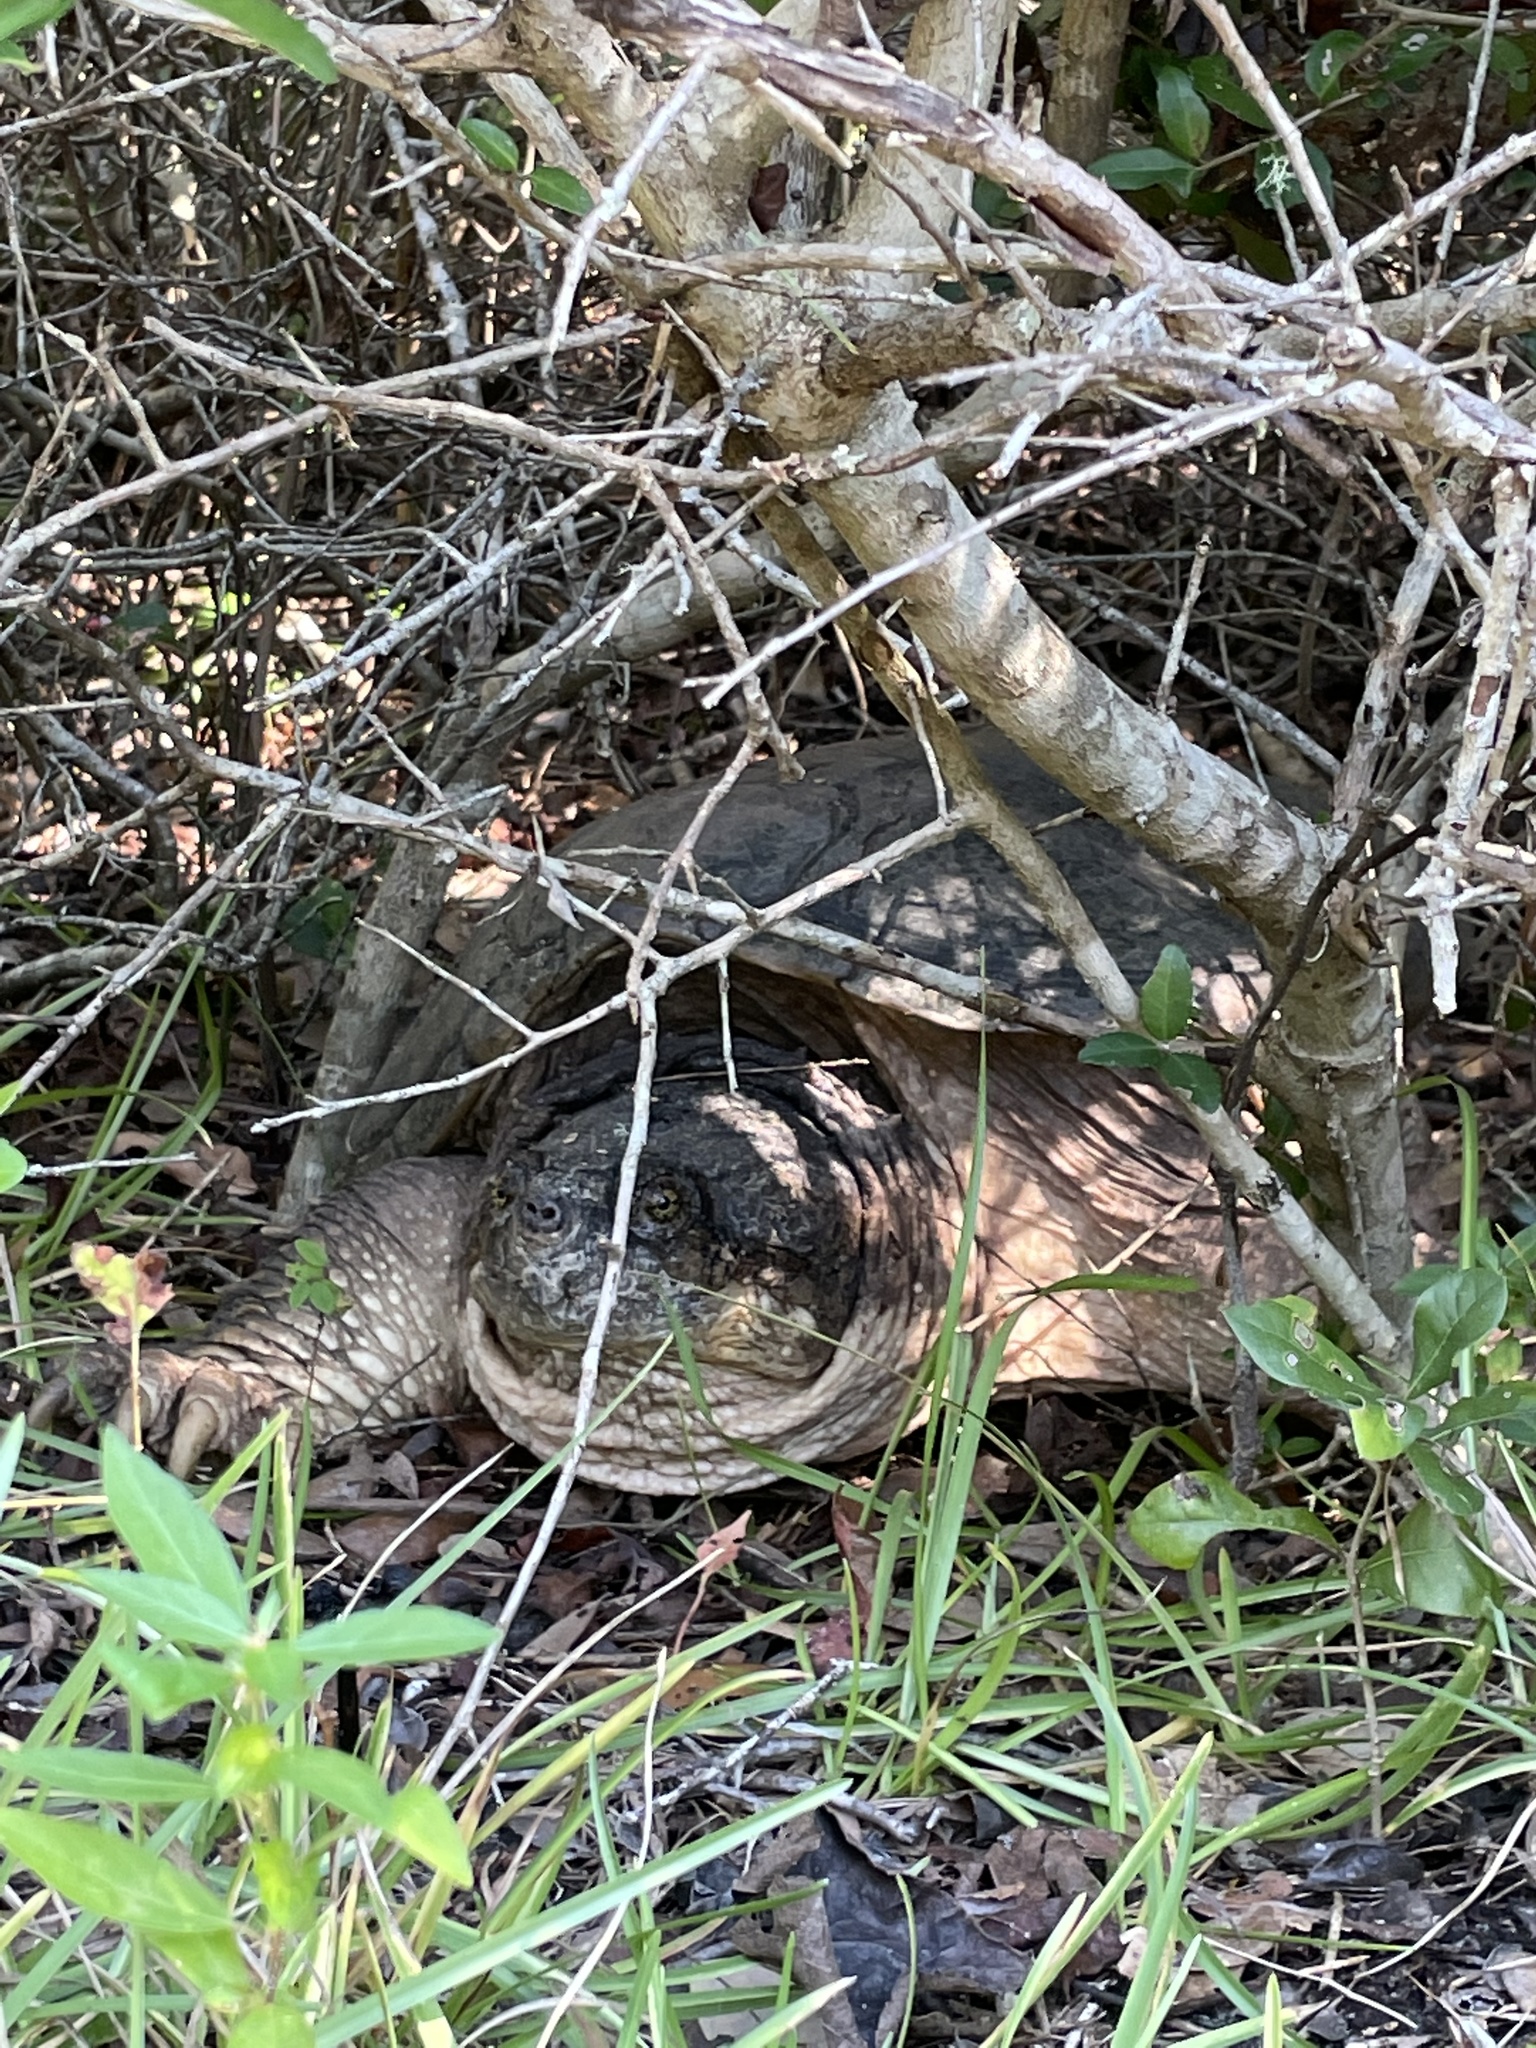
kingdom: Animalia
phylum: Chordata
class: Testudines
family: Chelydridae
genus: Chelydra
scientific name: Chelydra serpentina
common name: Common snapping turtle
